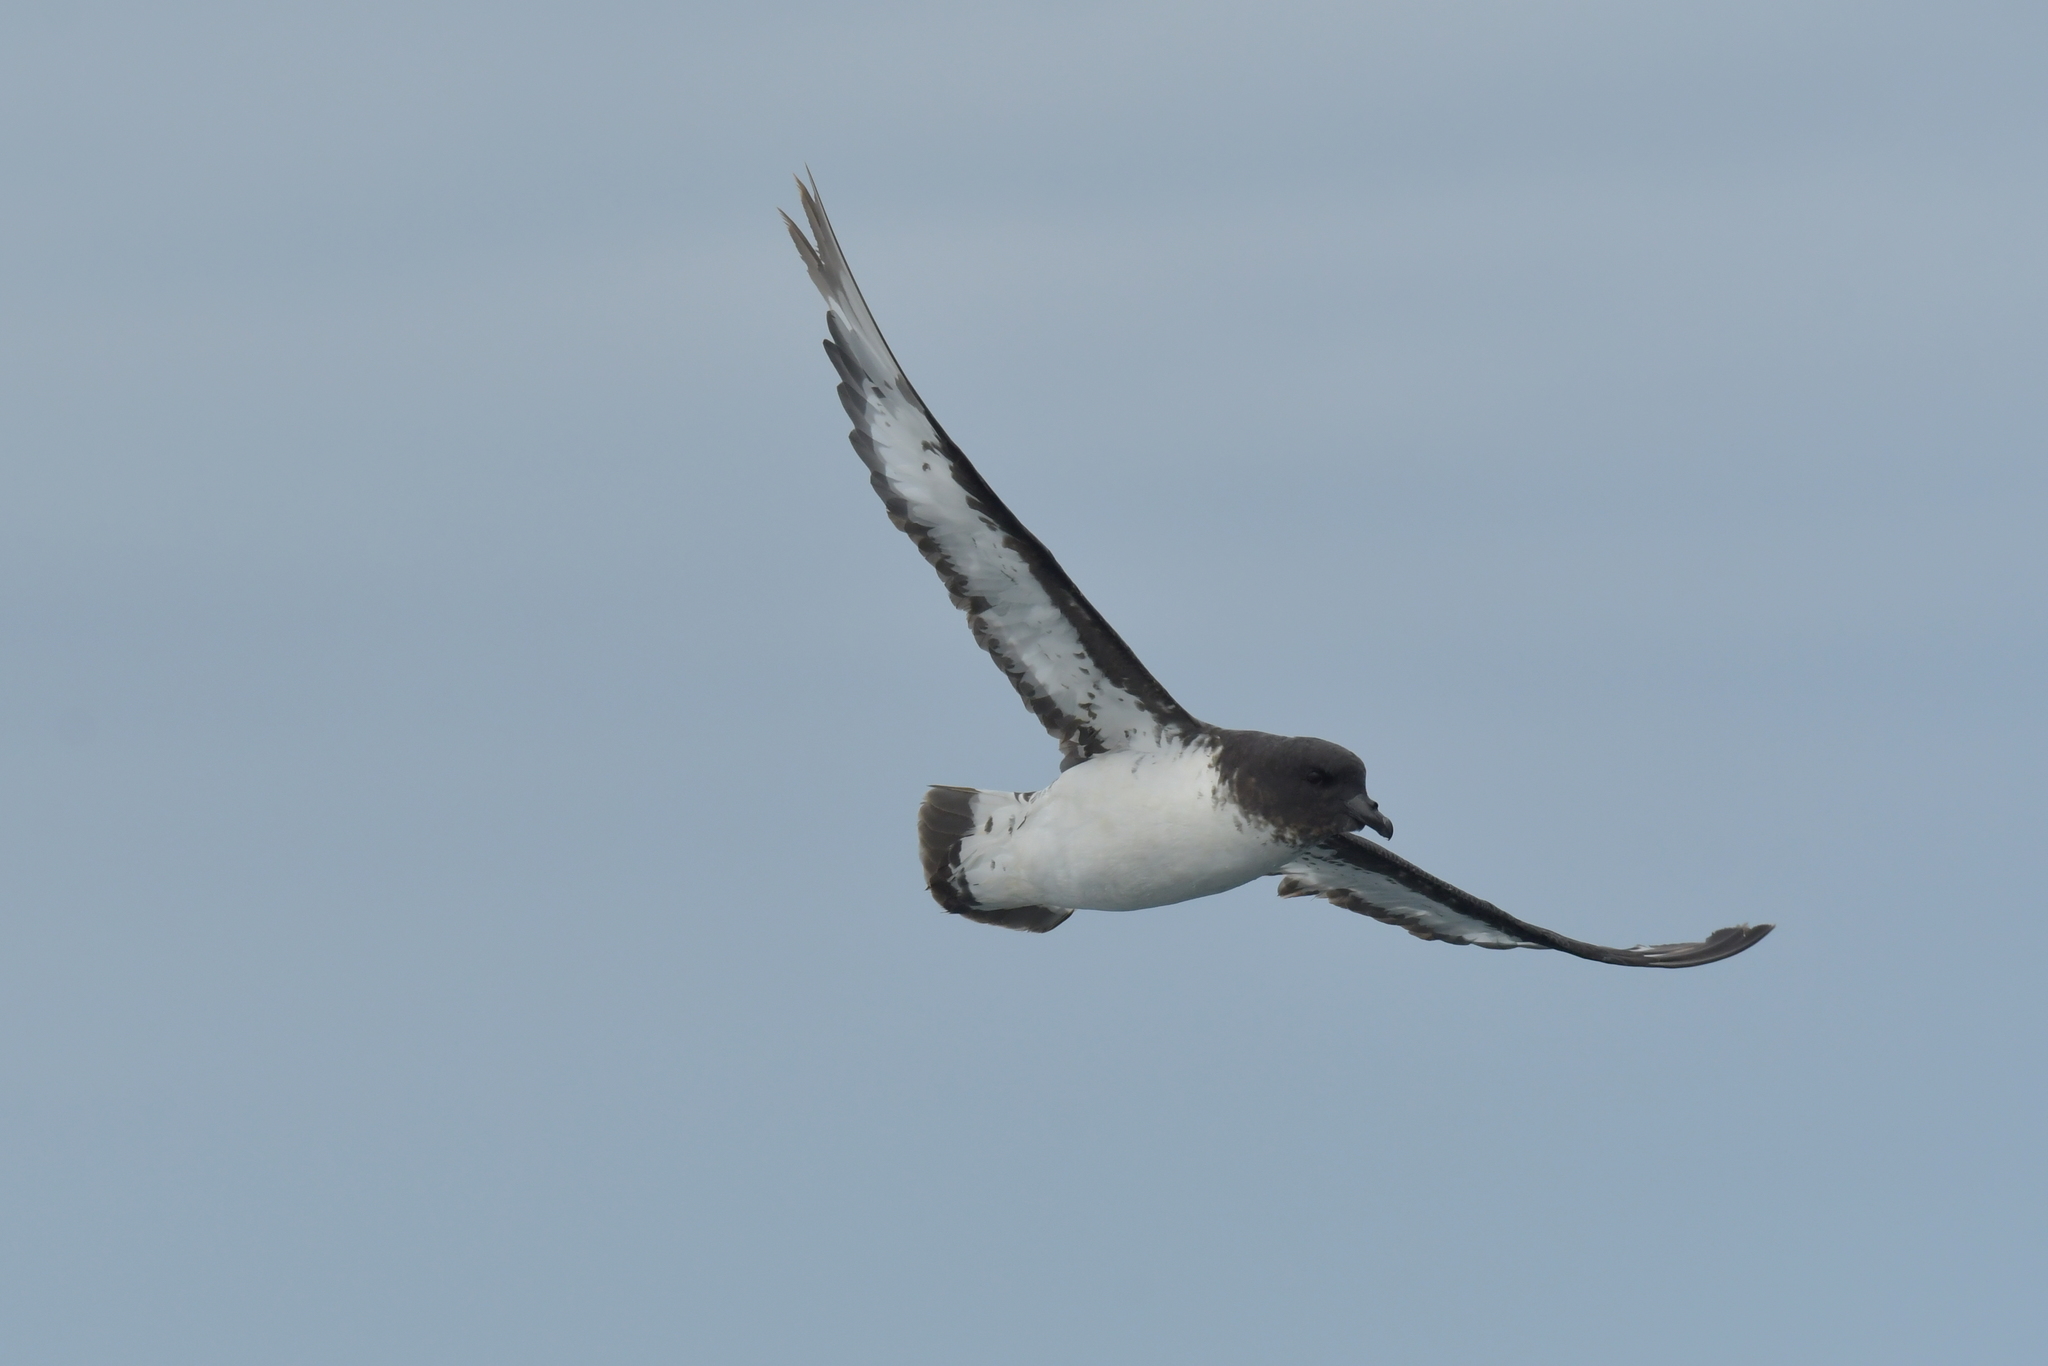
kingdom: Animalia
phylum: Chordata
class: Aves
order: Procellariiformes
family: Procellariidae
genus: Daption
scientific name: Daption capense
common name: Cape petrel
